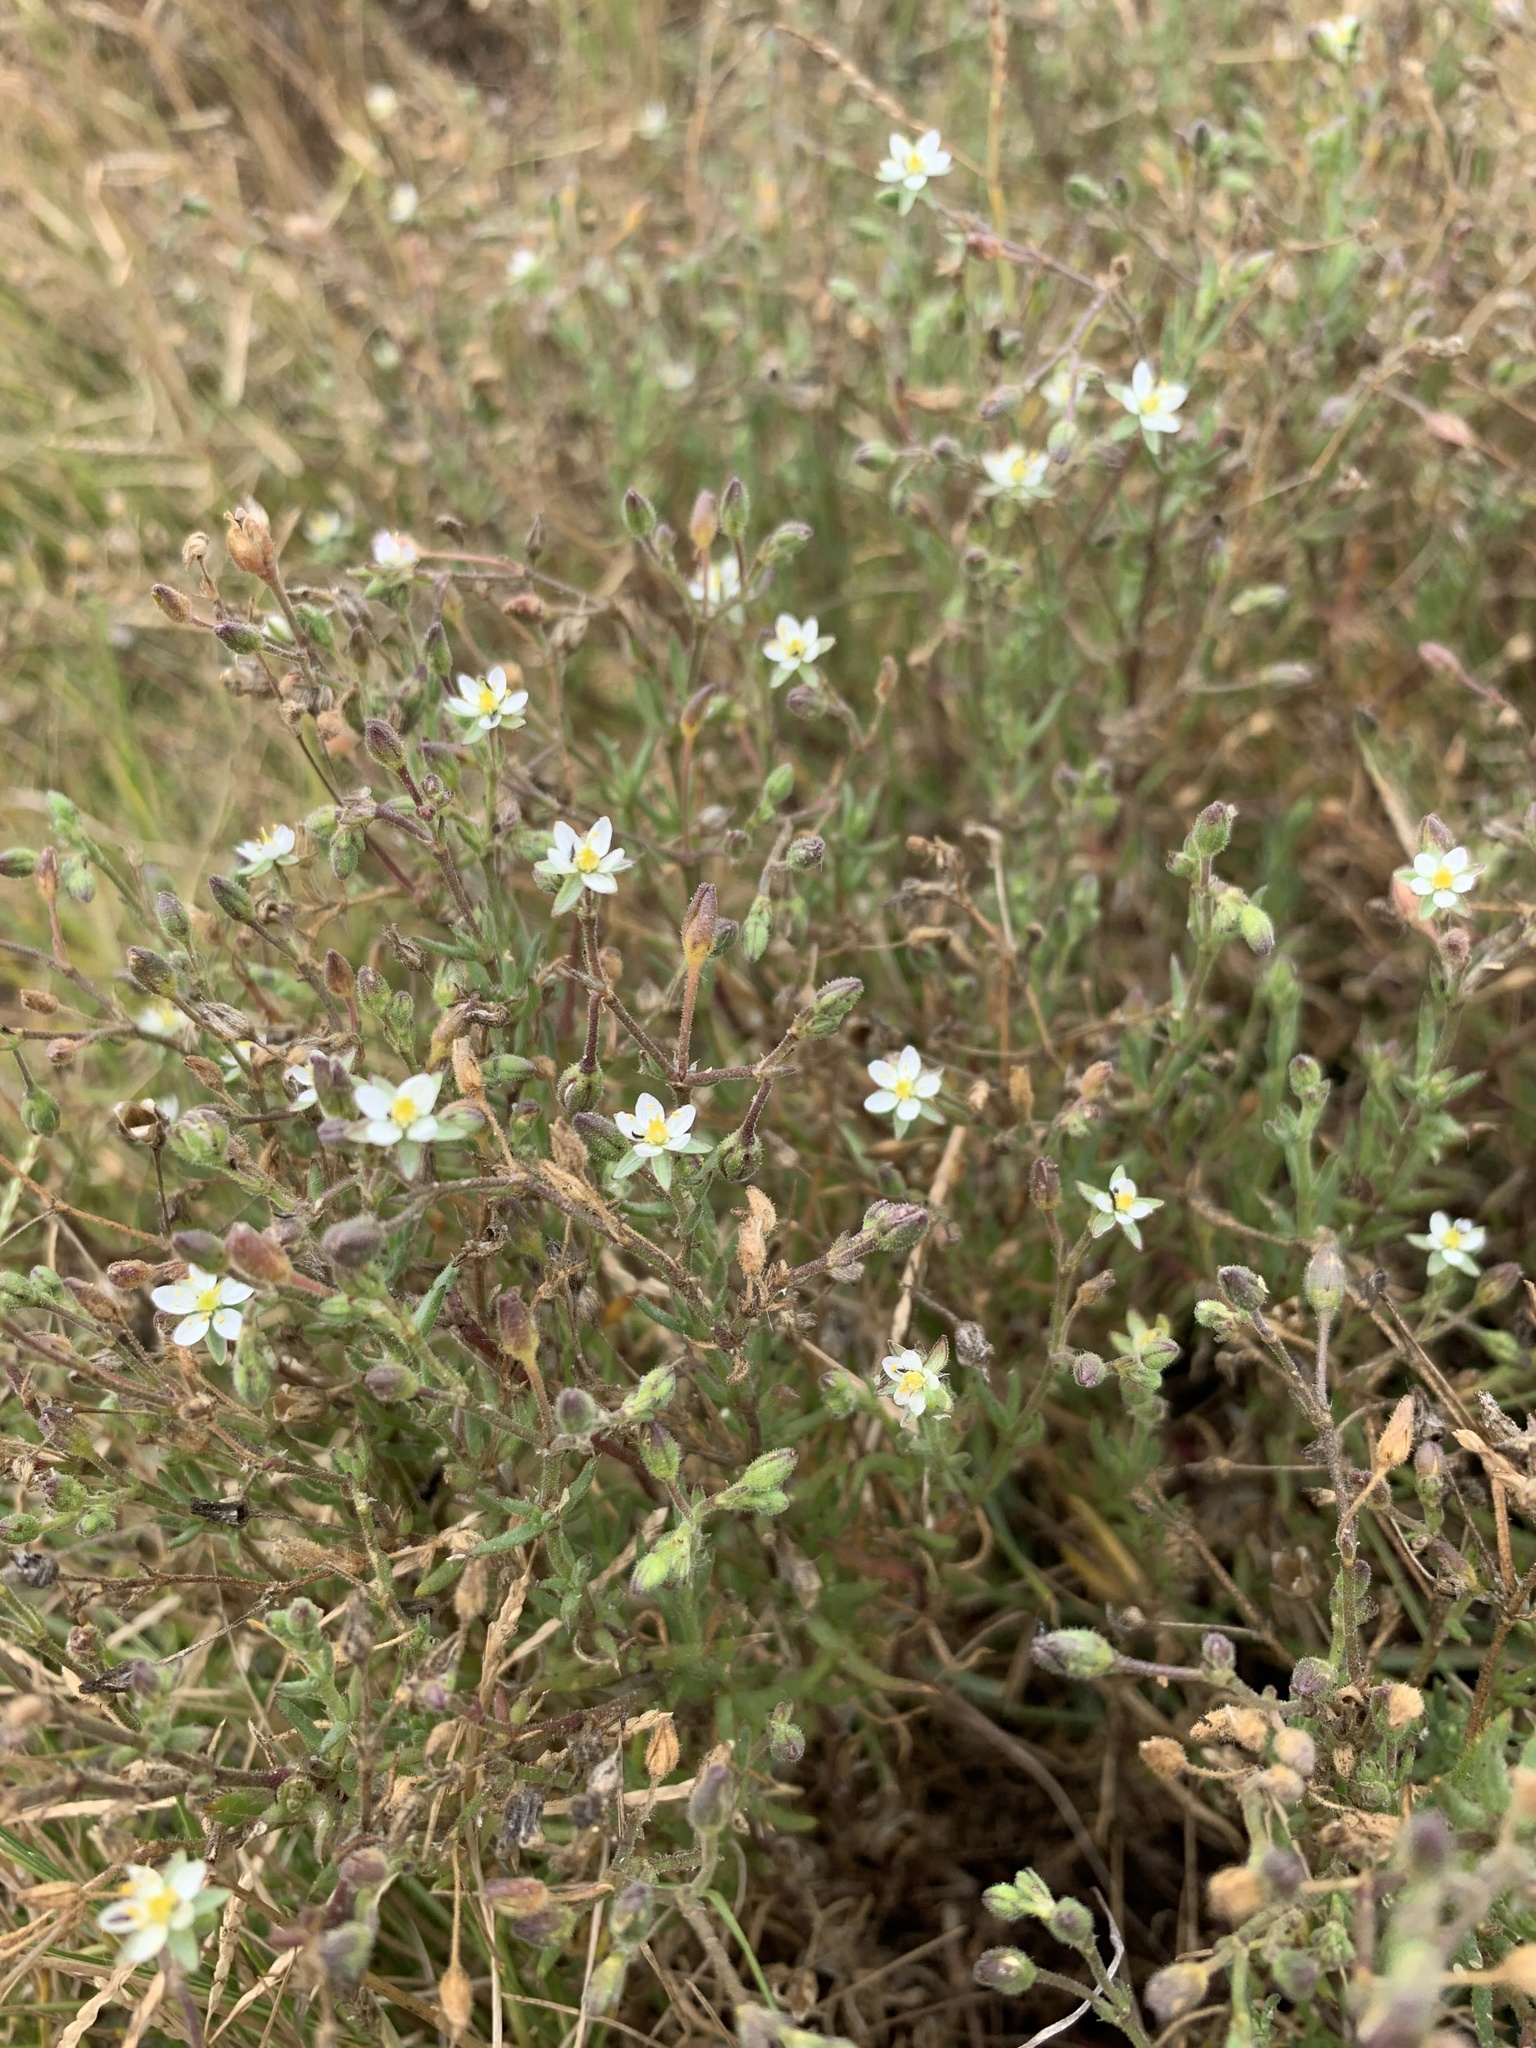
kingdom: Plantae
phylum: Tracheophyta
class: Magnoliopsida
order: Caryophyllales
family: Caryophyllaceae
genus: Spergularia
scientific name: Spergularia media
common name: Greater sea-spurrey
